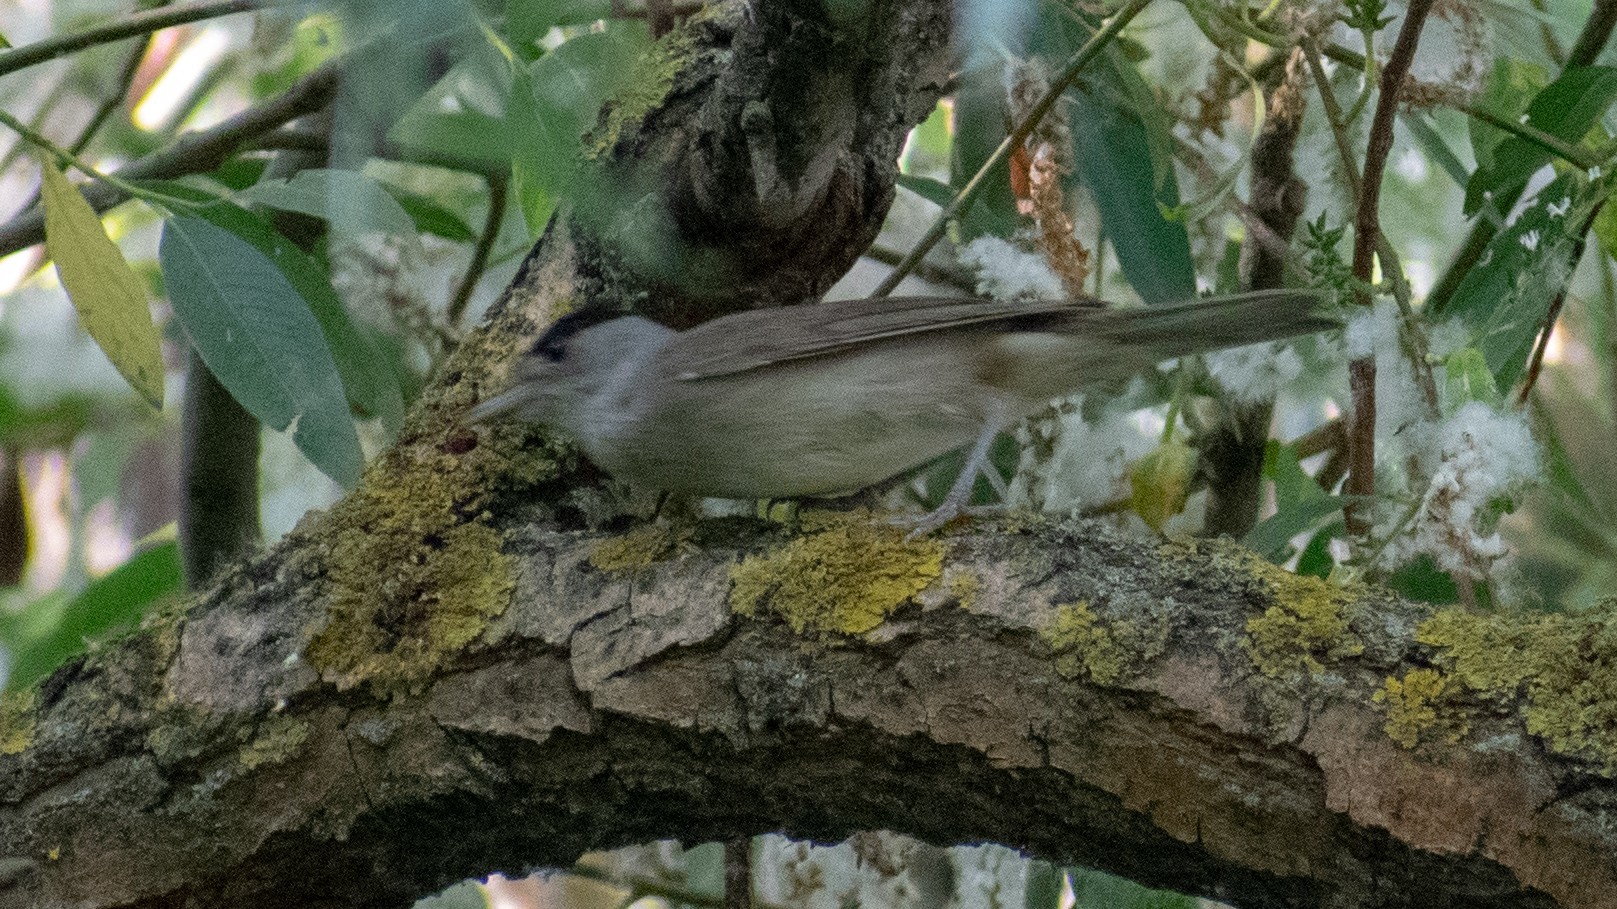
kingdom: Animalia
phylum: Chordata
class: Aves
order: Passeriformes
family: Sylviidae
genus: Sylvia
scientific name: Sylvia atricapilla
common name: Eurasian blackcap
